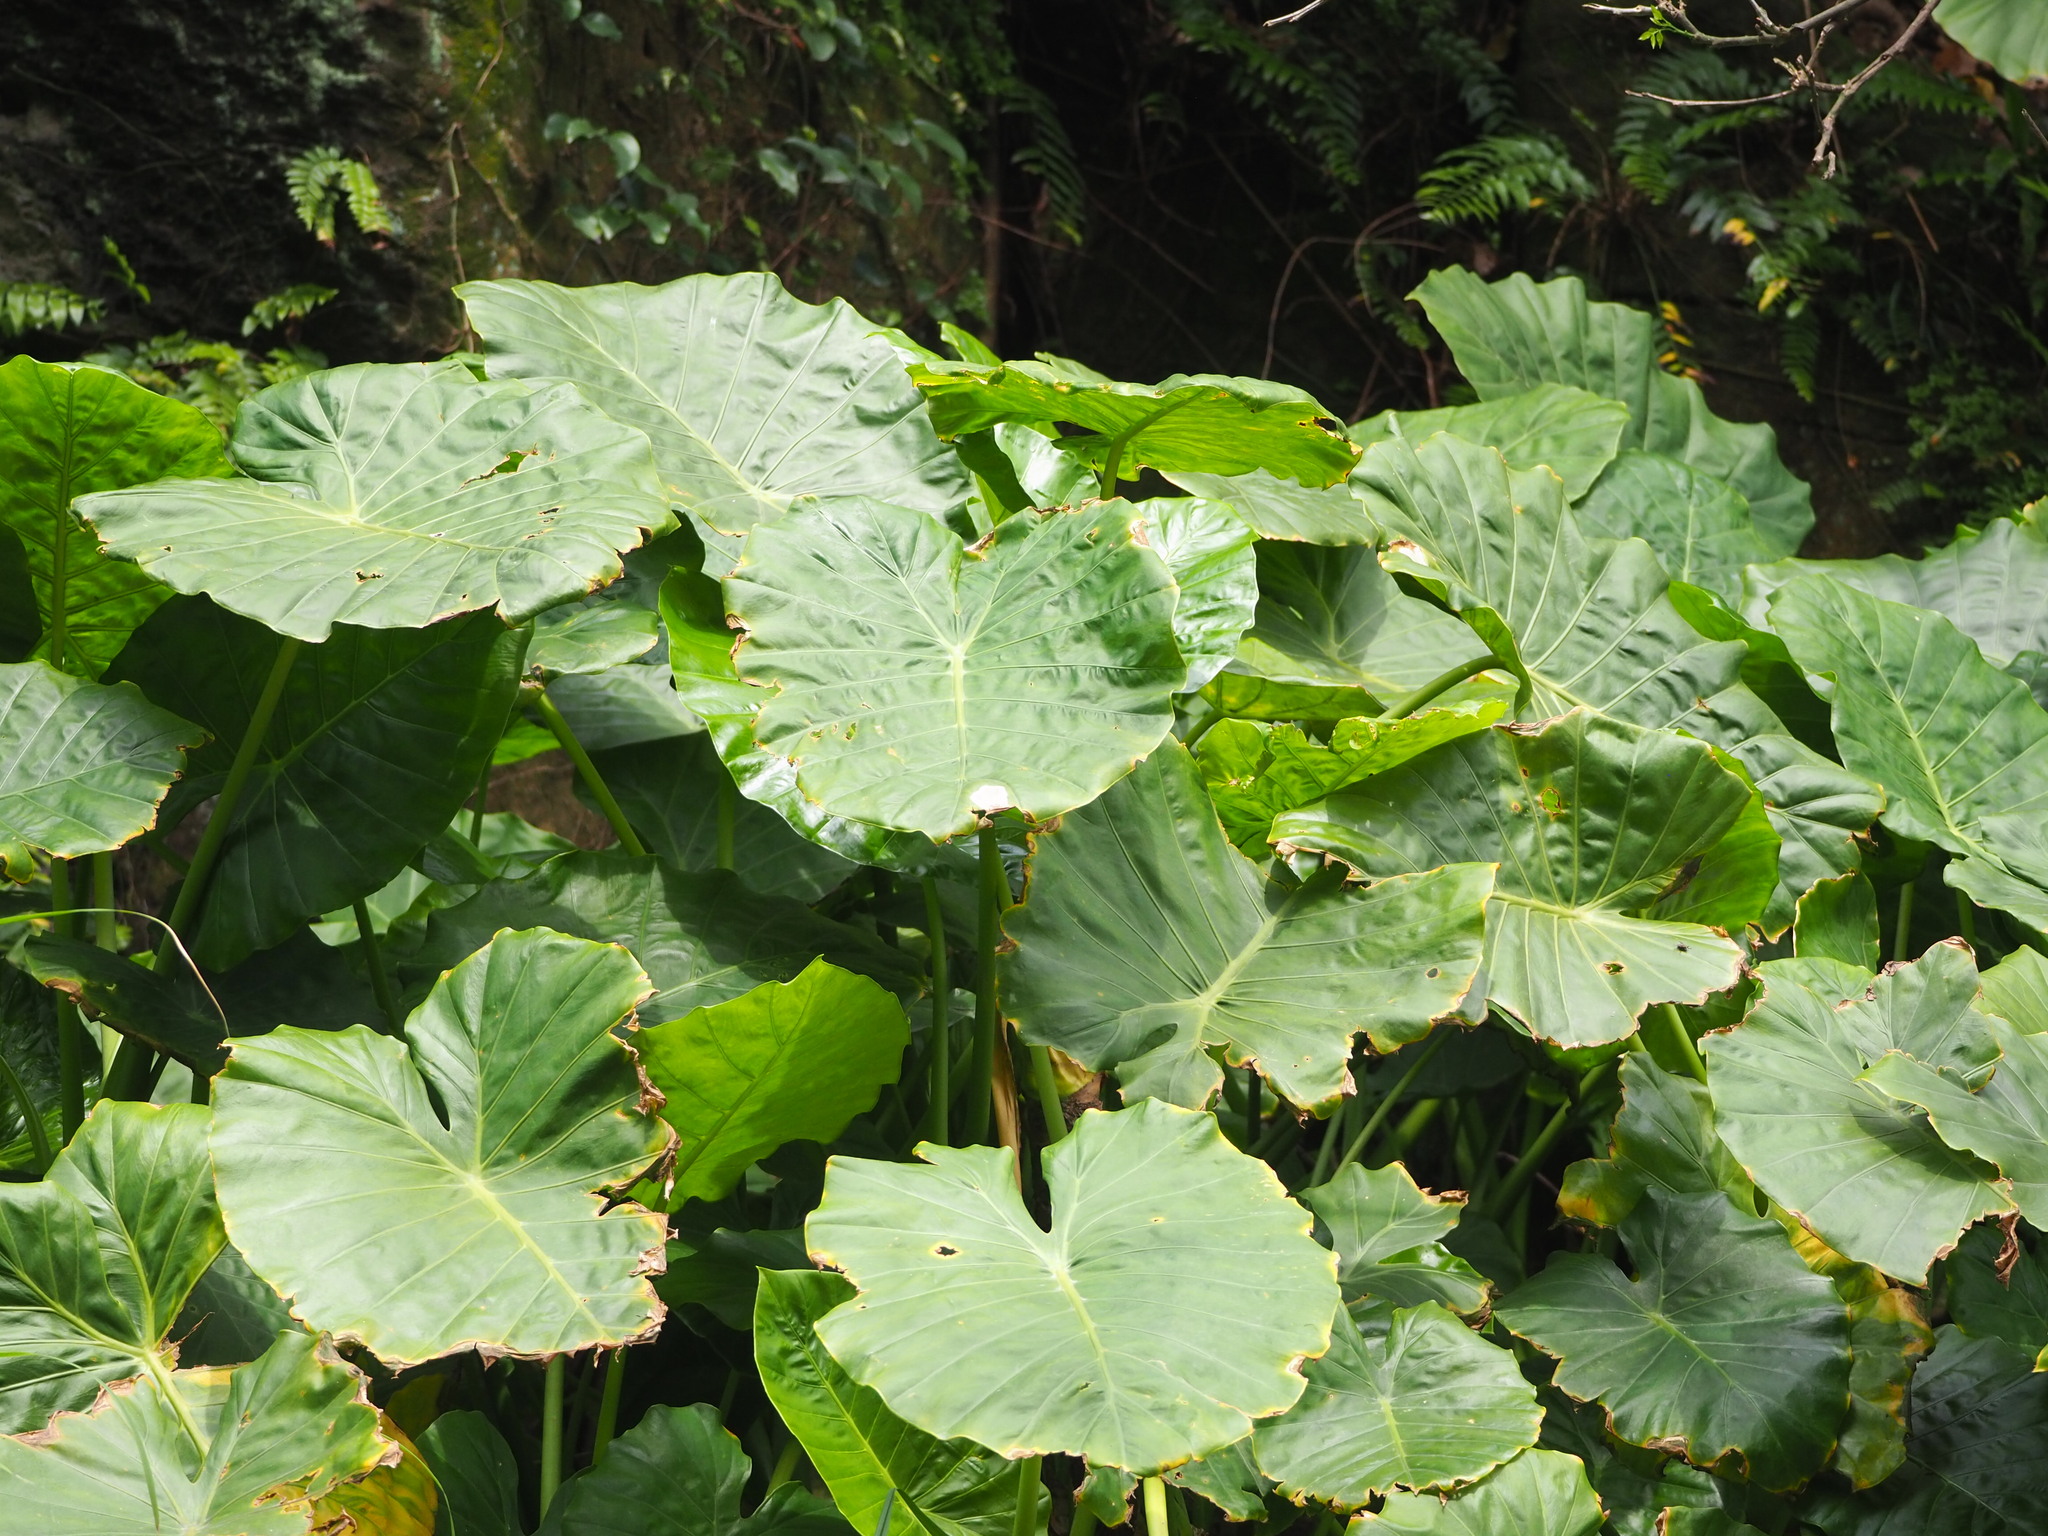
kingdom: Plantae
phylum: Tracheophyta
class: Liliopsida
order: Alismatales
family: Araceae
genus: Alocasia
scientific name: Alocasia odora
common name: Asian taro
